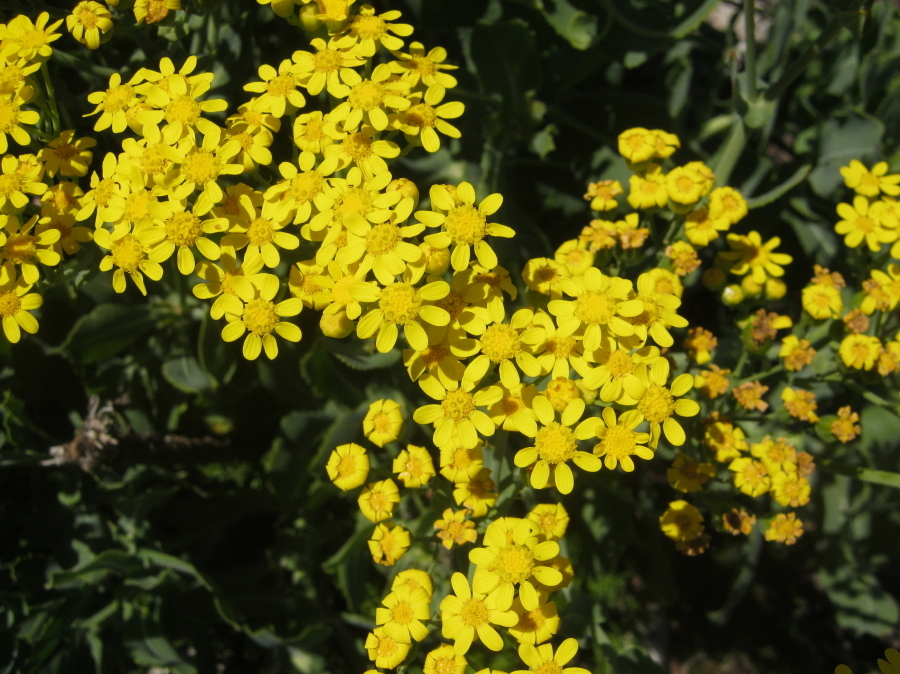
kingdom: Plantae
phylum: Tracheophyta
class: Magnoliopsida
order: Asterales
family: Asteraceae
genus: Othonna
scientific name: Othonna parviflora
